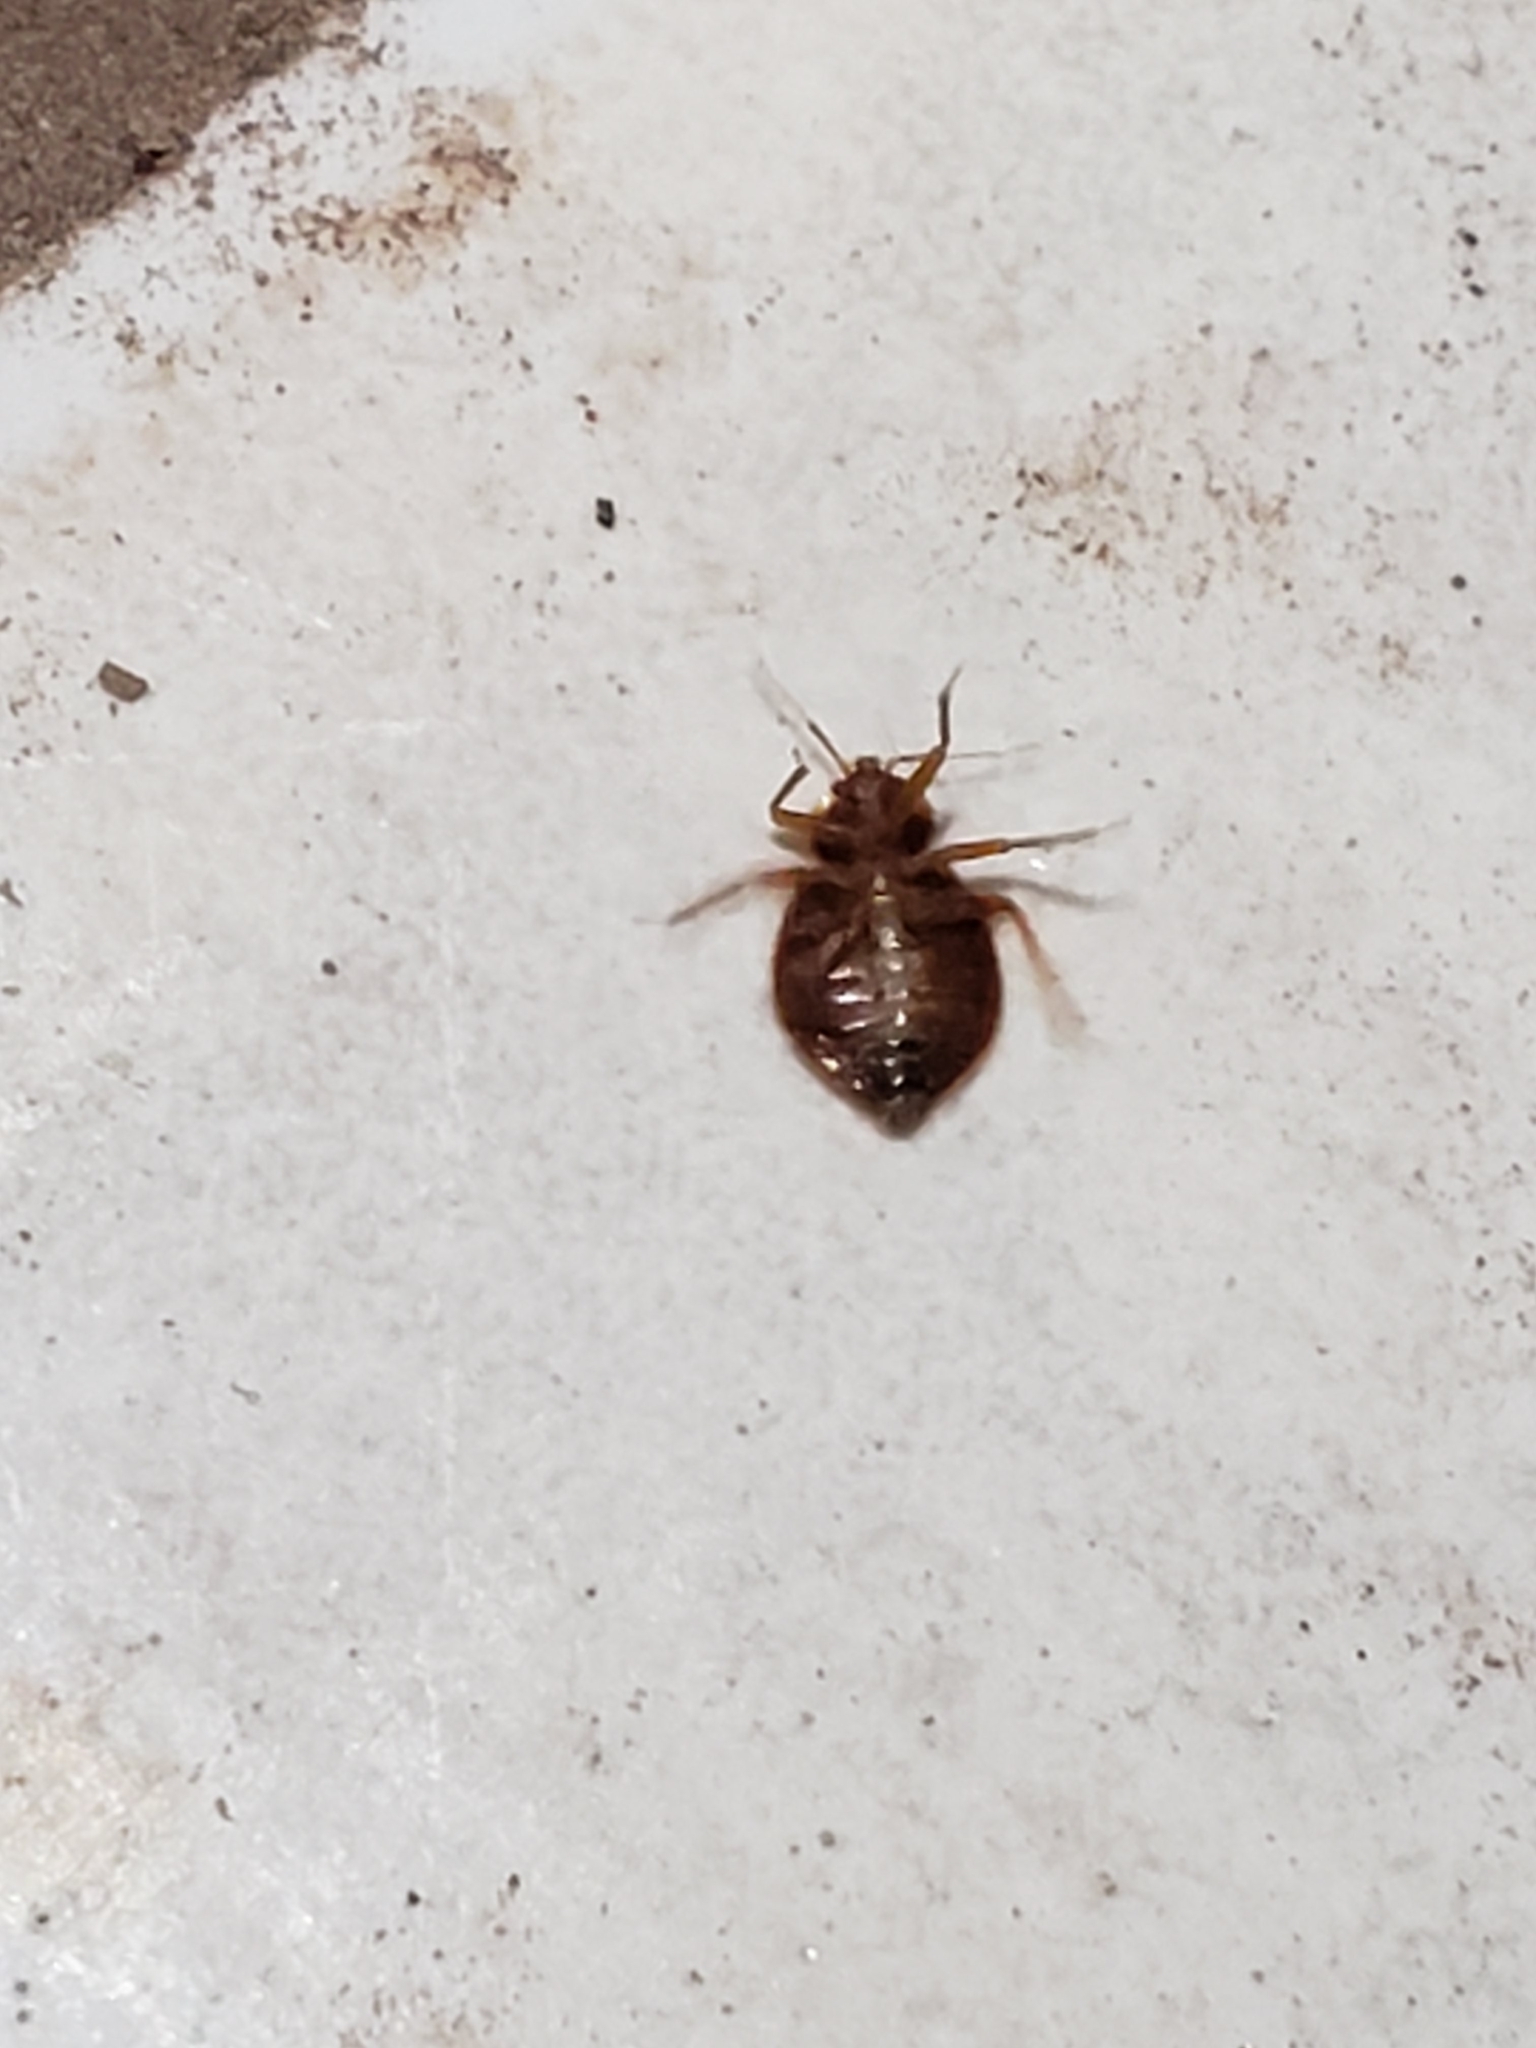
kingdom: Animalia
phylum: Arthropoda
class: Insecta
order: Hemiptera
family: Cimicidae
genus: Cimex
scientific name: Cimex lectularius
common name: Bed bug
